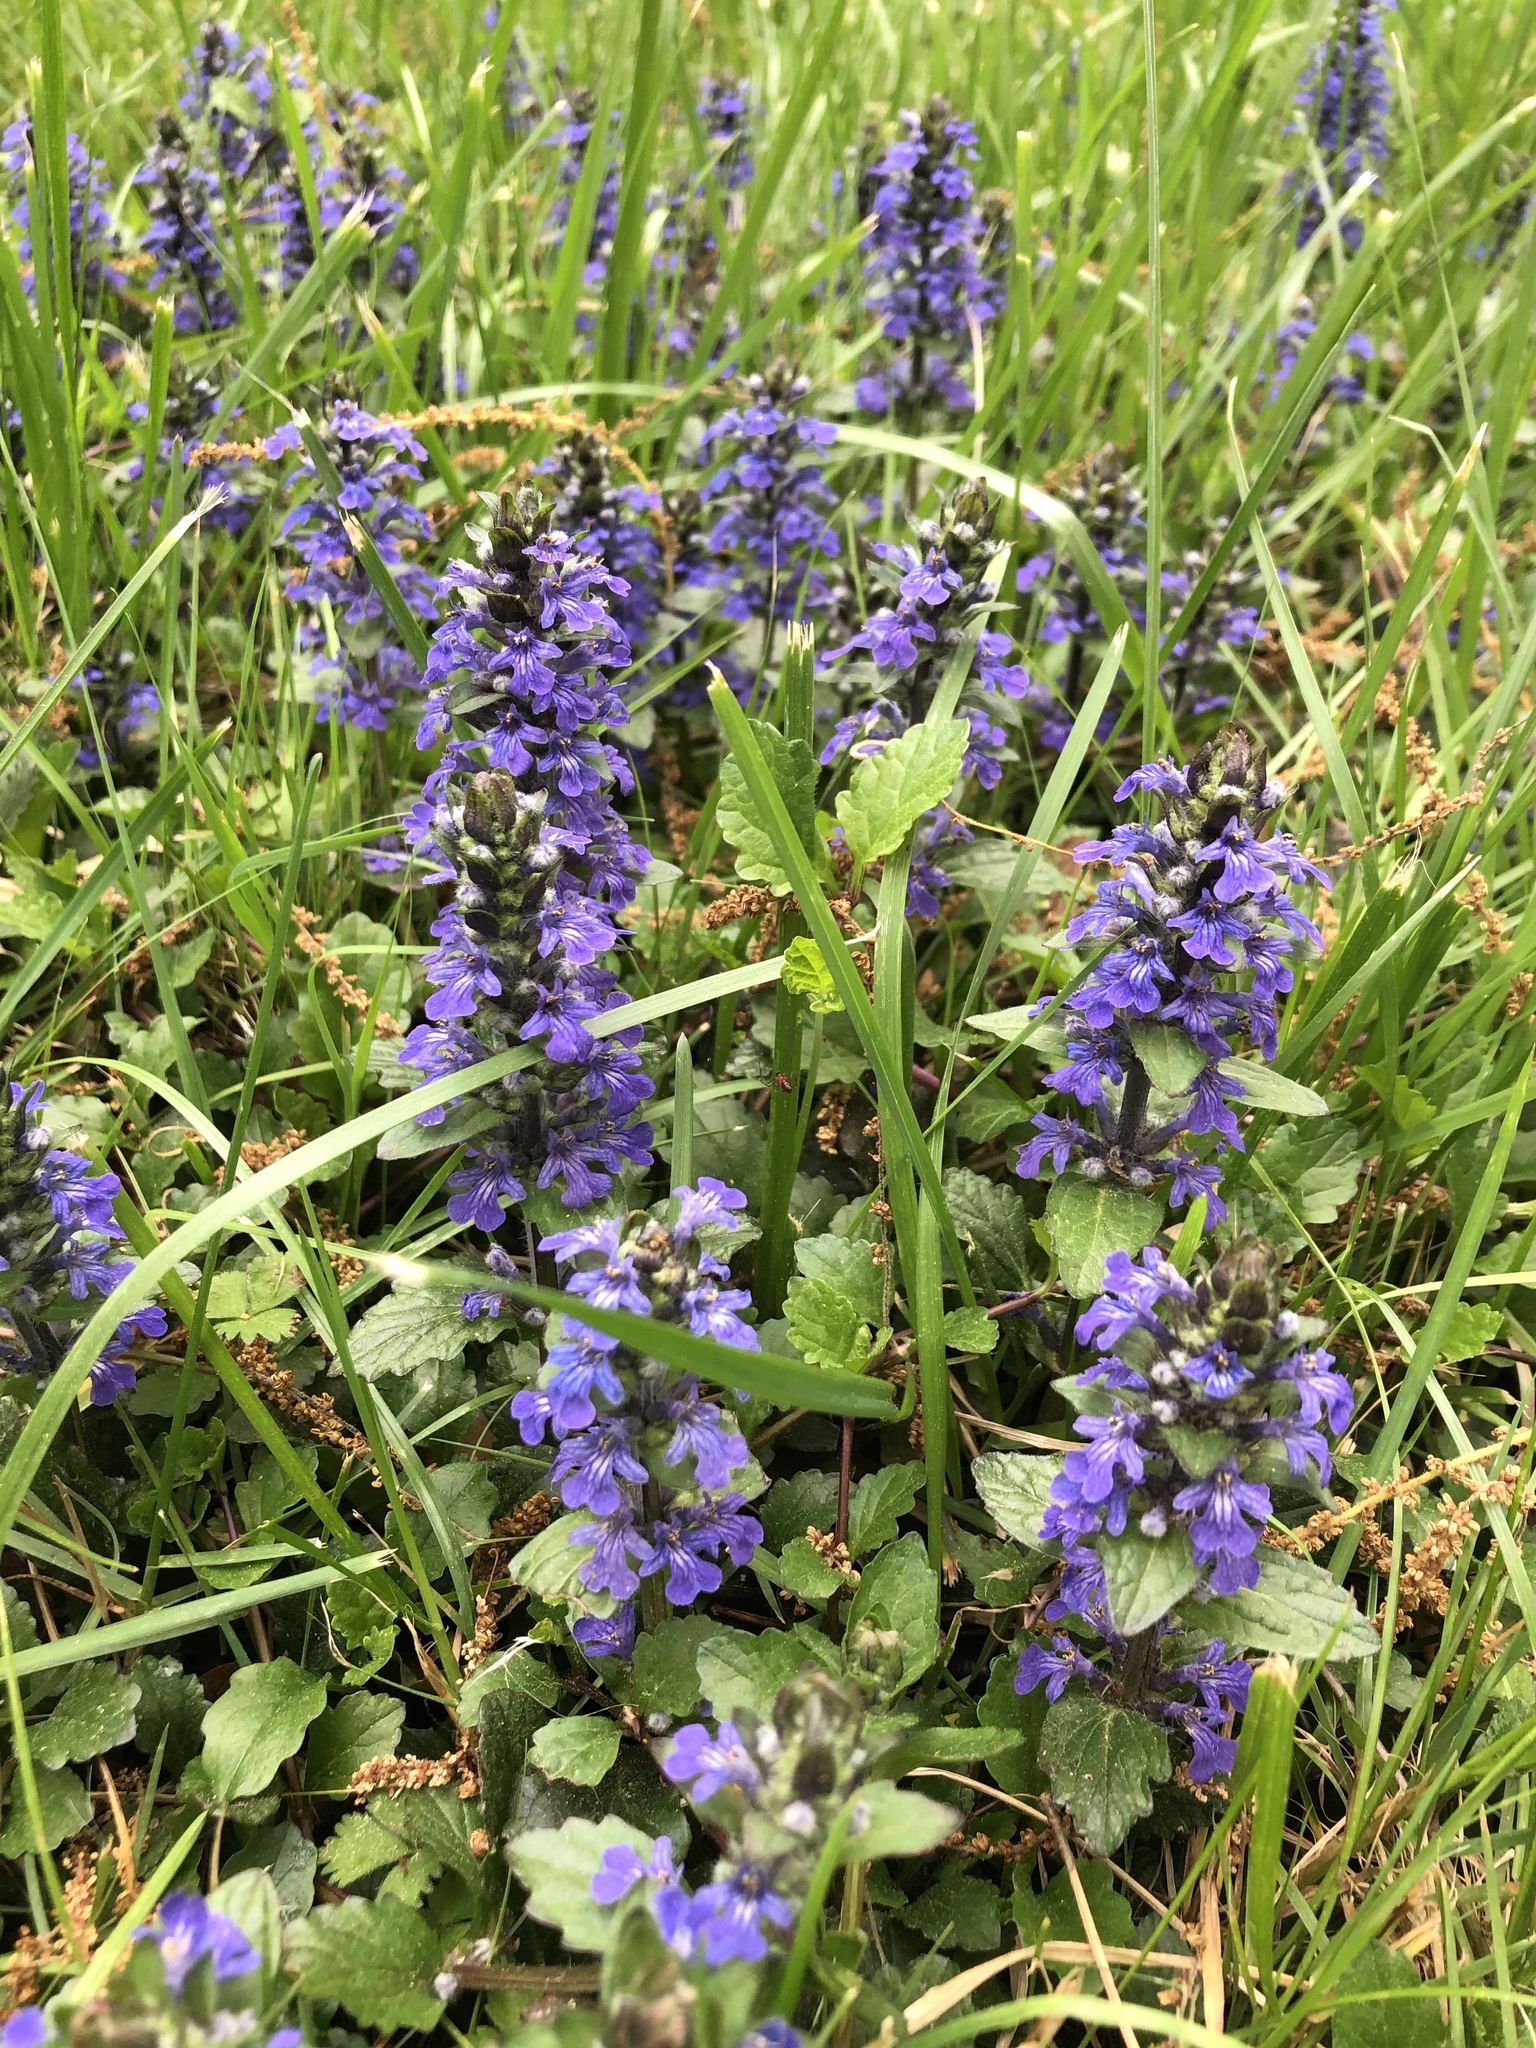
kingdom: Plantae
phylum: Tracheophyta
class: Magnoliopsida
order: Lamiales
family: Lamiaceae
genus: Ajuga
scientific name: Ajuga reptans
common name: Bugle
